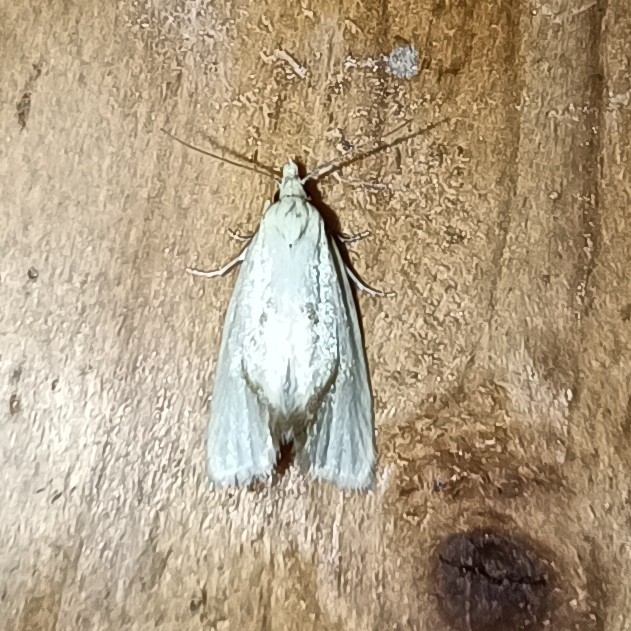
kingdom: Animalia
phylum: Arthropoda
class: Insecta
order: Lepidoptera
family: Tortricidae
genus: Agapeta
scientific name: Agapeta hamana
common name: Common yellow conch
